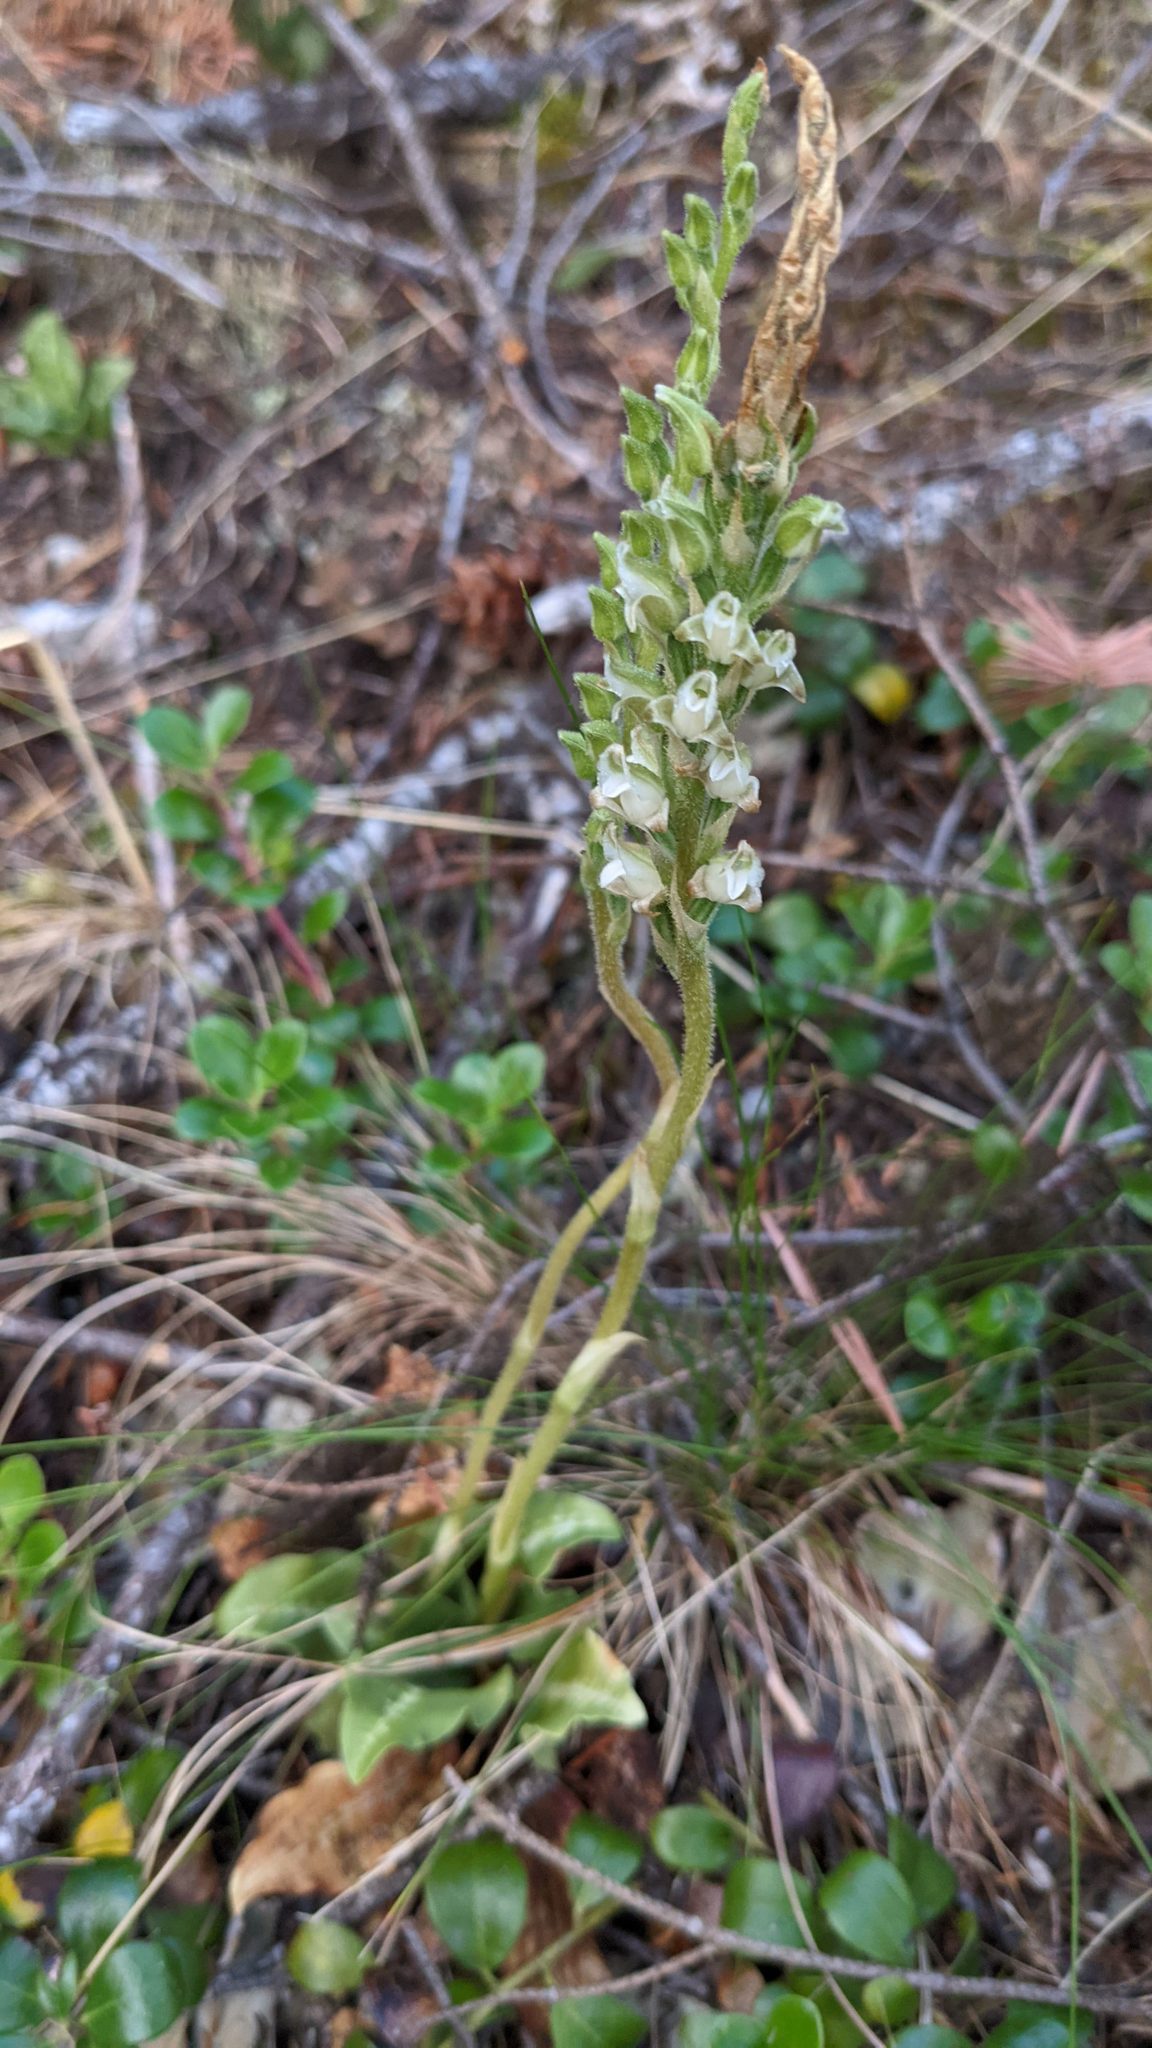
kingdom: Plantae
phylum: Tracheophyta
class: Liliopsida
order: Asparagales
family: Orchidaceae
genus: Goodyera
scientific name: Goodyera oblongifolia
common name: Giant rattlesnake-plantain
